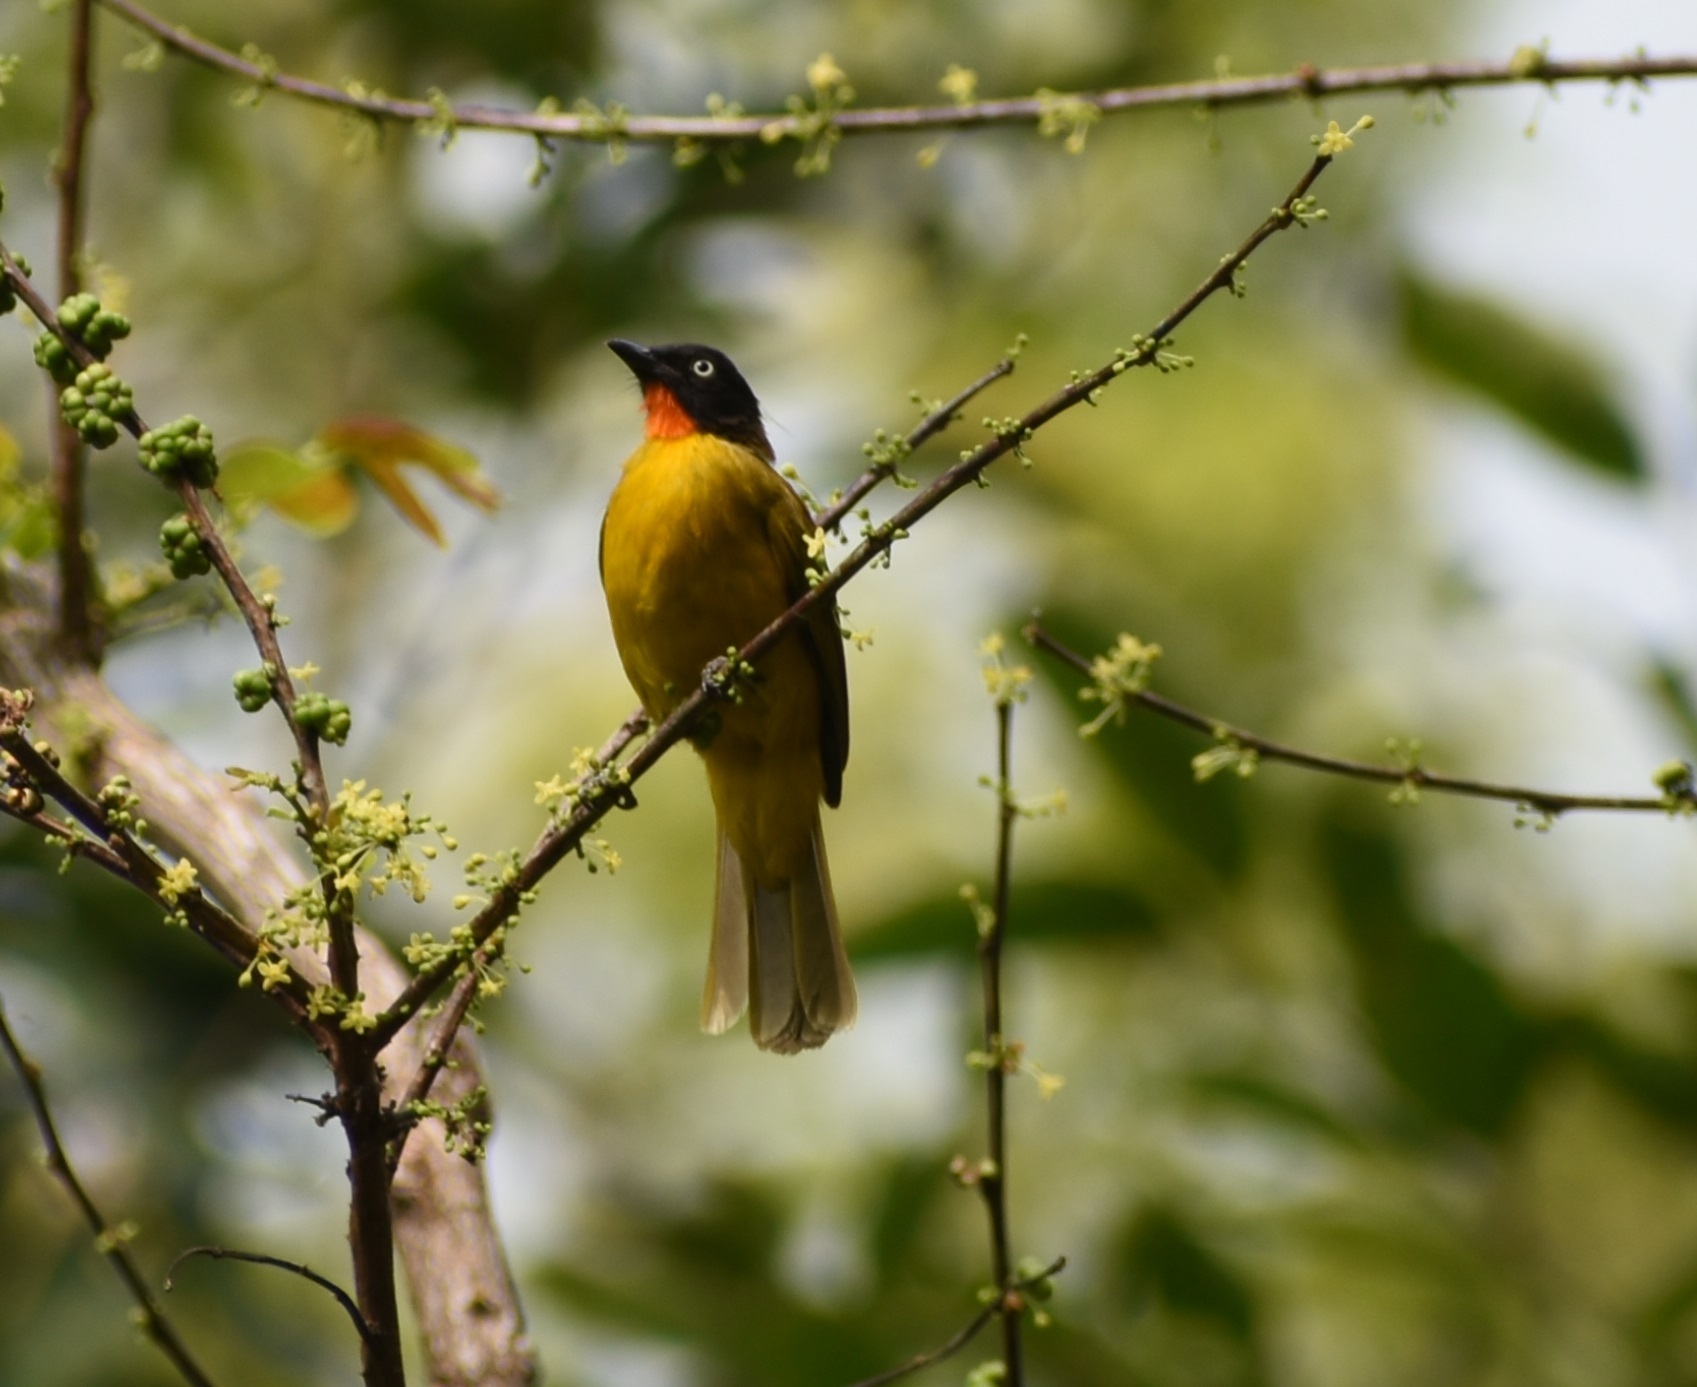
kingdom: Animalia
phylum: Chordata
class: Aves
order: Passeriformes
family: Pycnonotidae
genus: Pycnonotus
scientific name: Pycnonotus gularis
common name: Flame-throated bulbul
